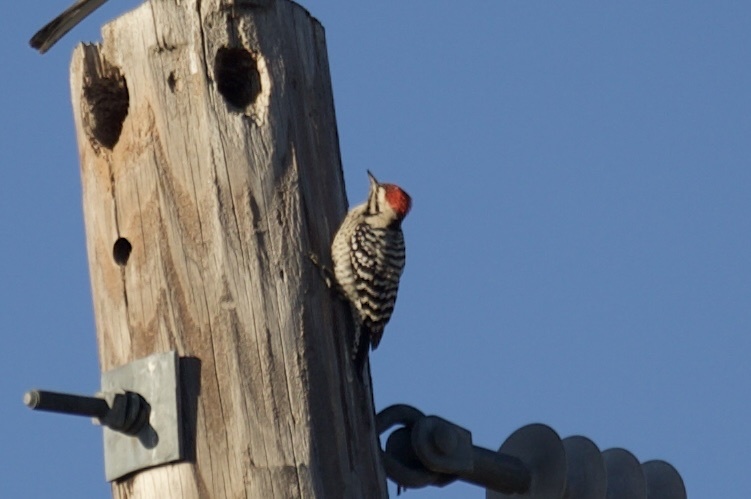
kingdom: Animalia
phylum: Chordata
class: Aves
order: Piciformes
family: Picidae
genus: Dryobates
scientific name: Dryobates scalaris
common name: Ladder-backed woodpecker
